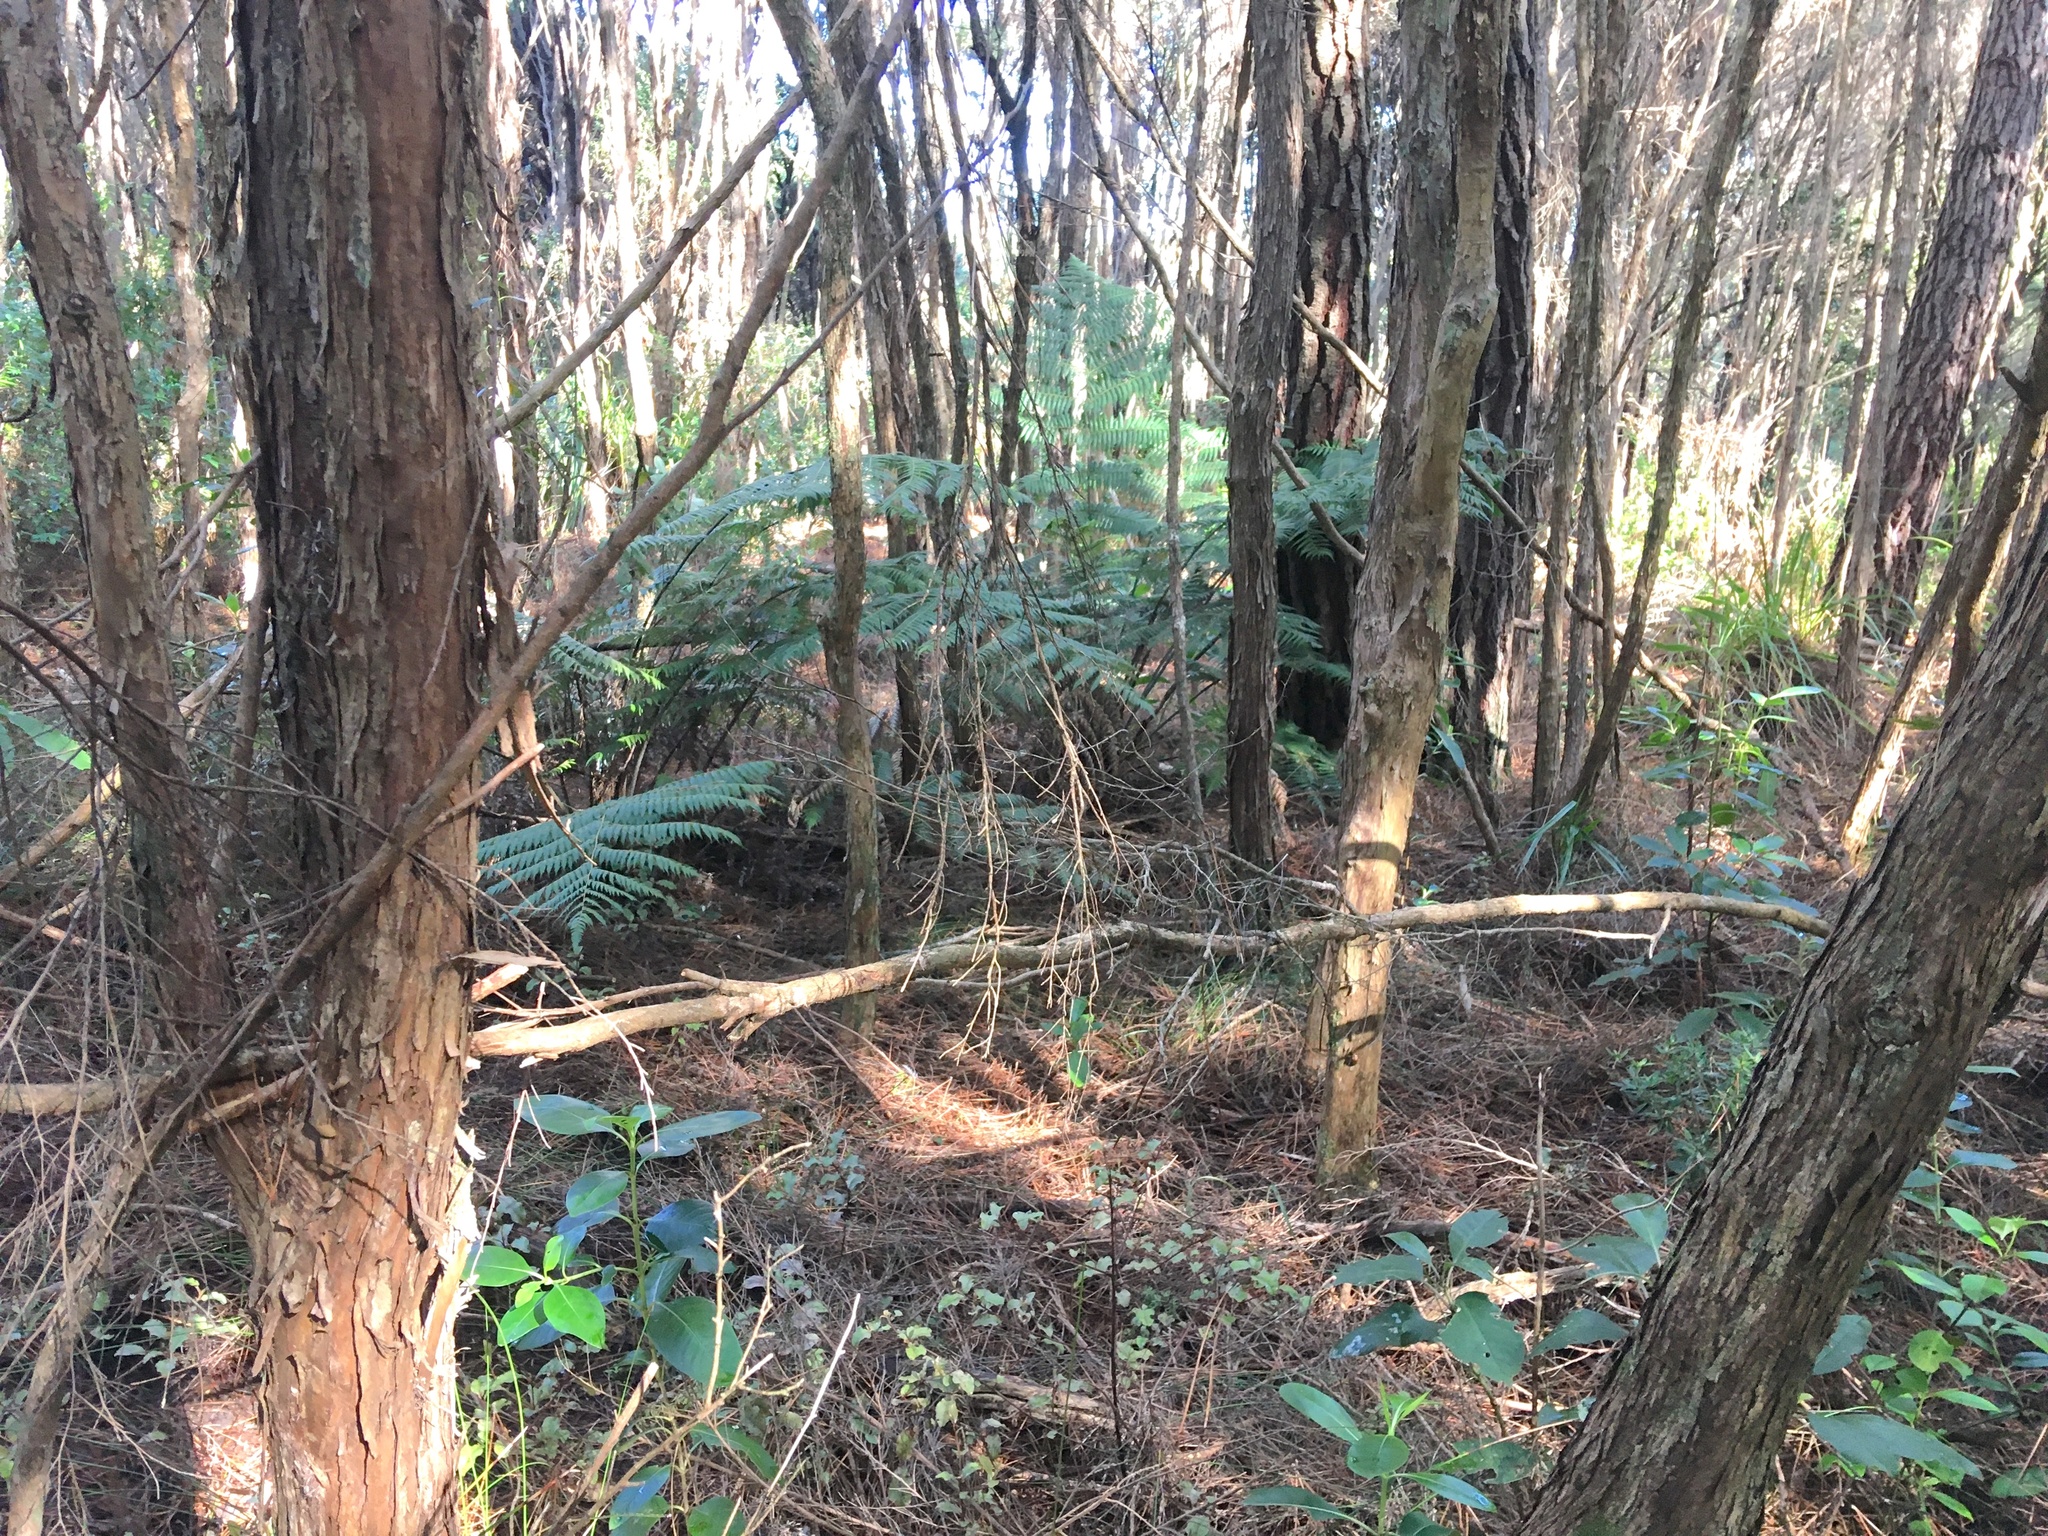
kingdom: Plantae
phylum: Tracheophyta
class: Polypodiopsida
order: Cyatheales
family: Cyatheaceae
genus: Alsophila
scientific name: Alsophila dealbata
